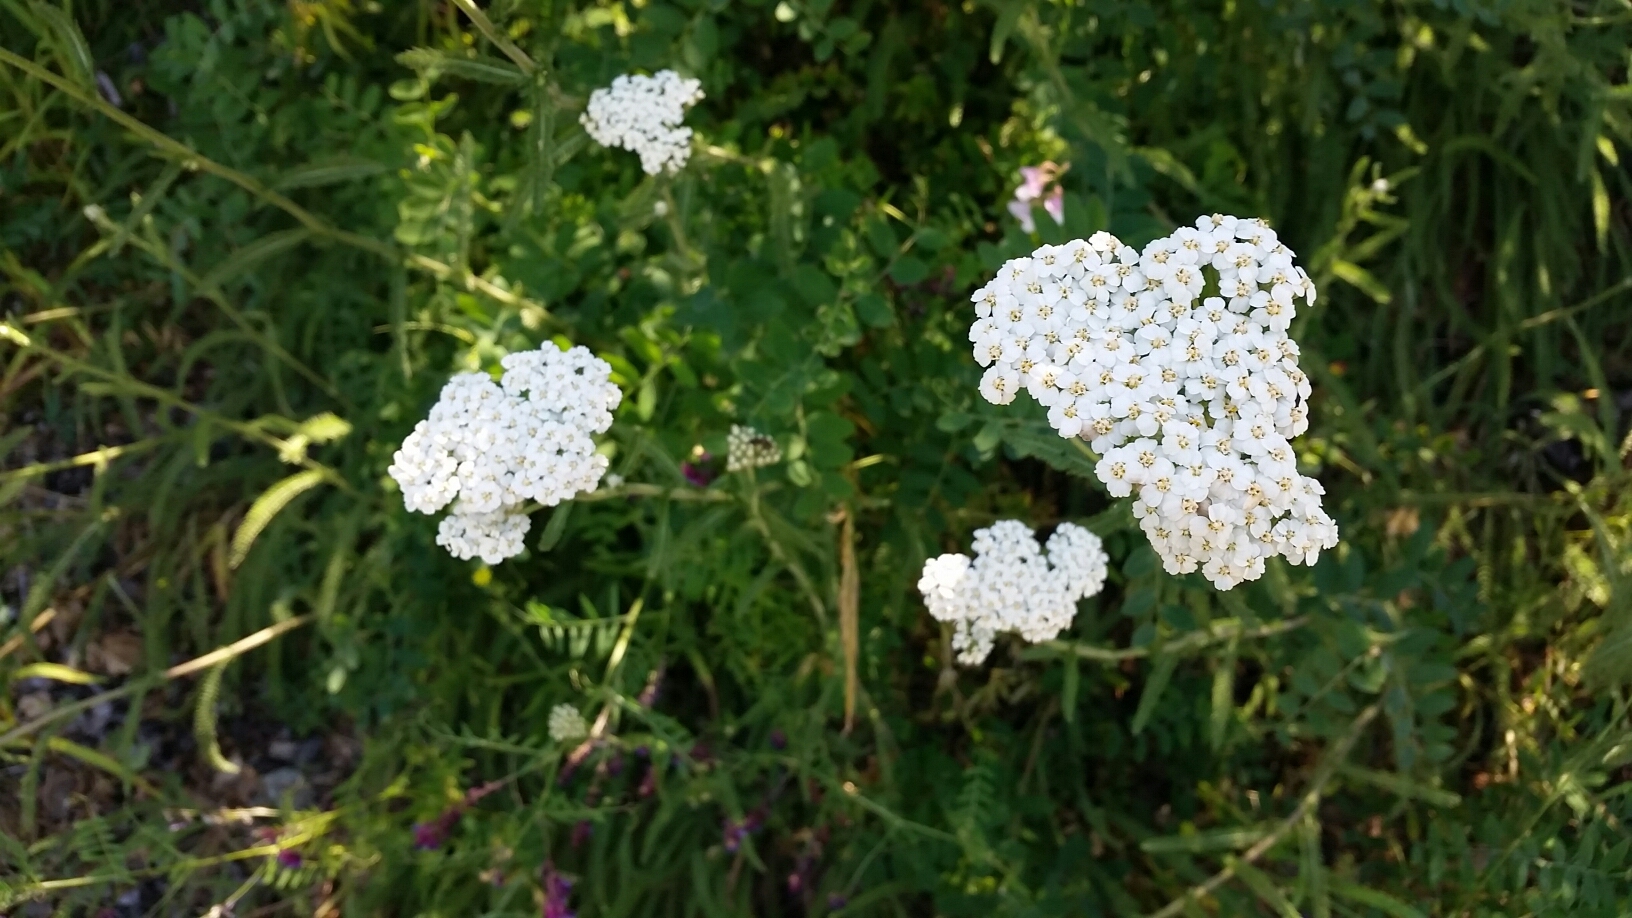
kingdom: Plantae
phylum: Tracheophyta
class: Magnoliopsida
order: Asterales
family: Asteraceae
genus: Achillea
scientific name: Achillea millefolium
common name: Yarrow
